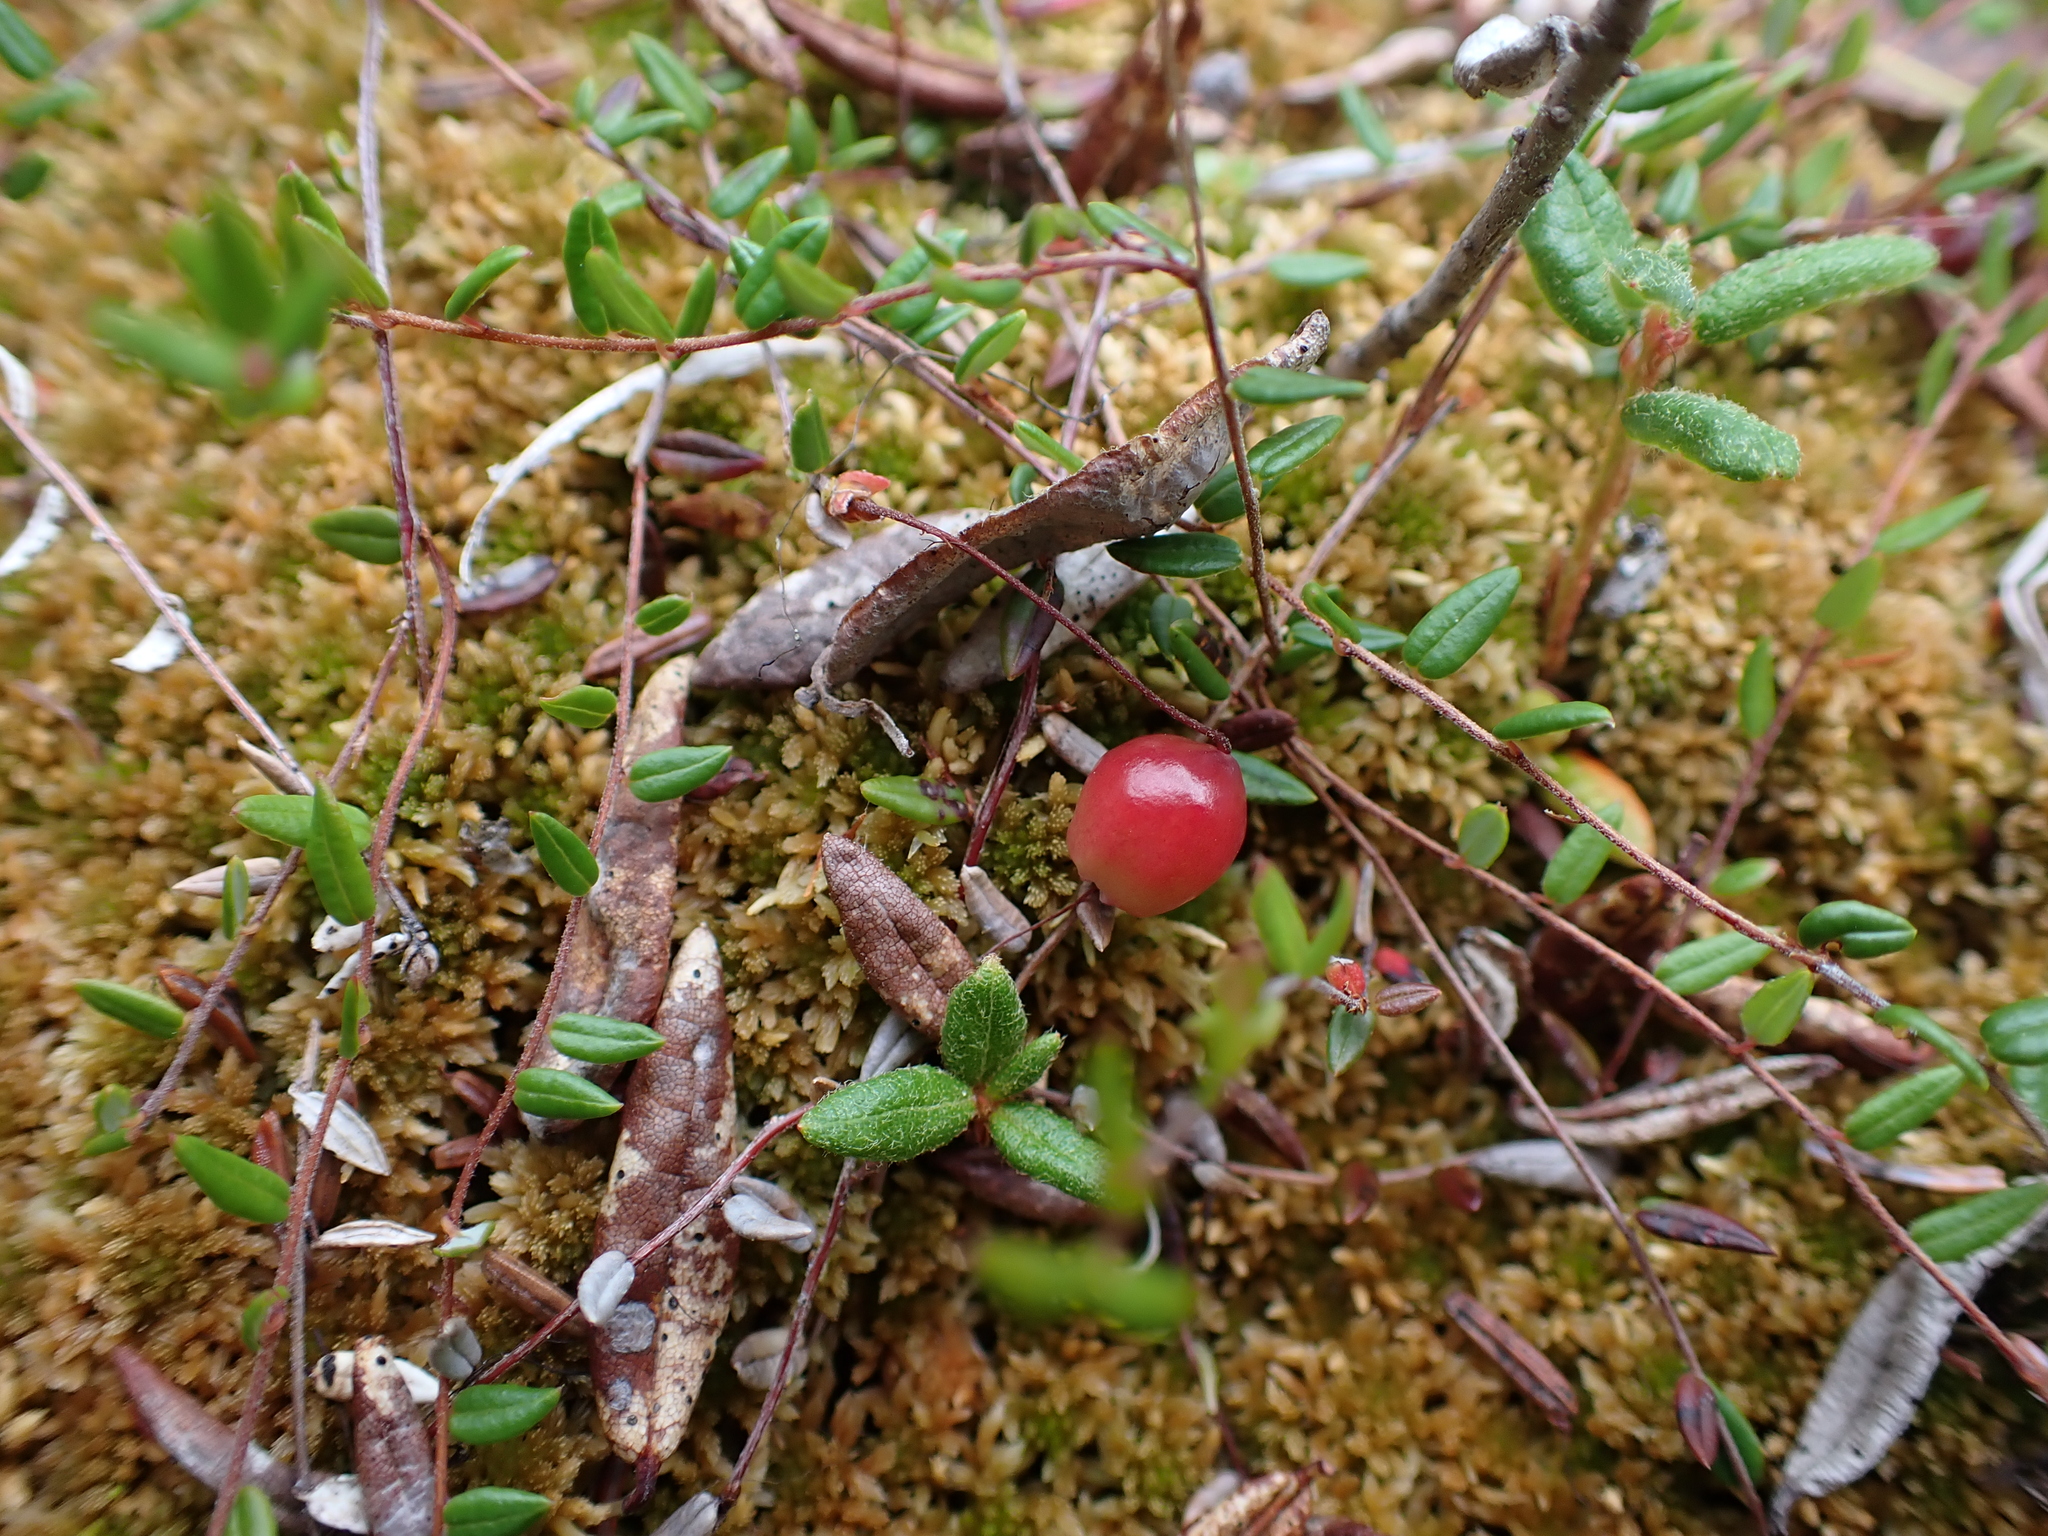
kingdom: Plantae
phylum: Tracheophyta
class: Magnoliopsida
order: Ericales
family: Ericaceae
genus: Vaccinium
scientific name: Vaccinium oxycoccos
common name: Cranberry
